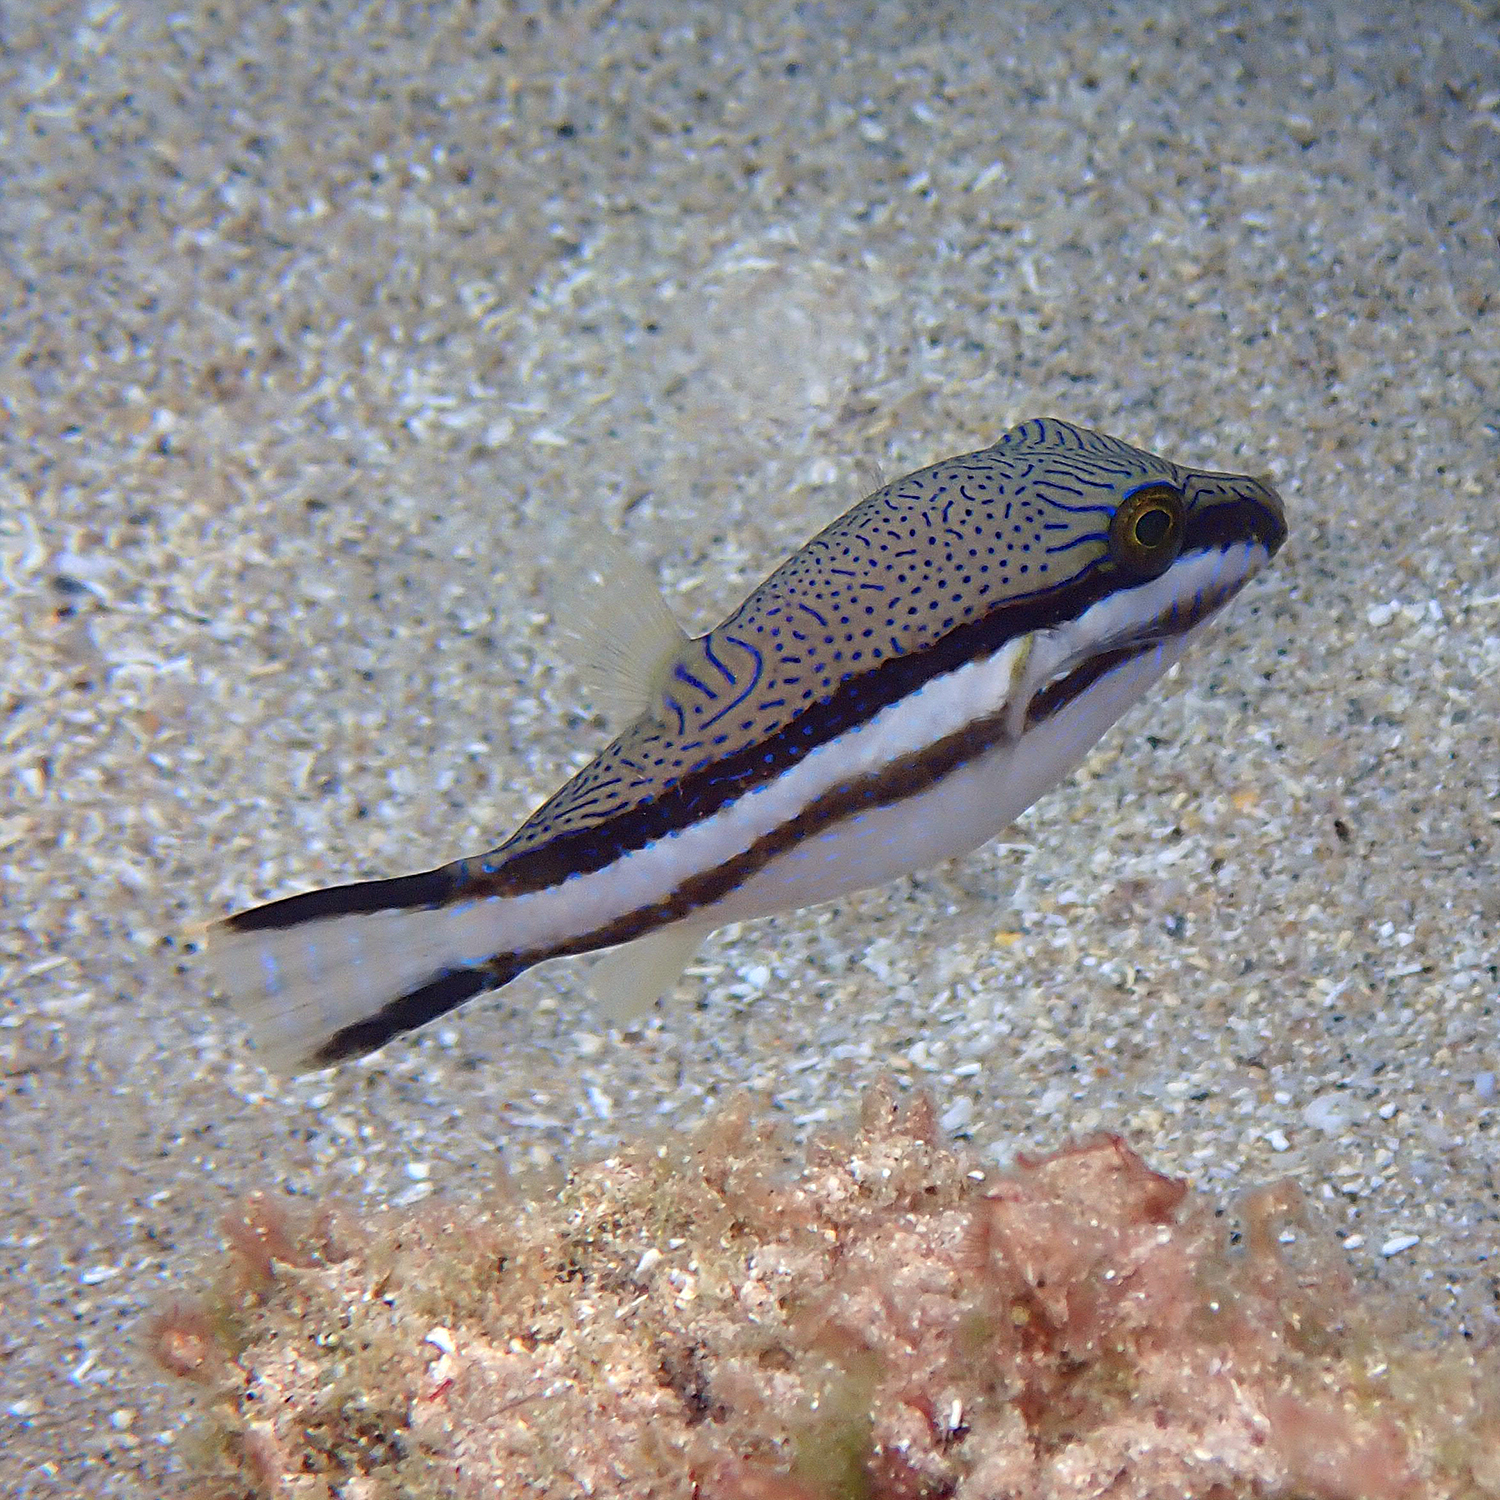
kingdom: Animalia
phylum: Chordata
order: Tetraodontiformes
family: Tetraodontidae
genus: Canthigaster
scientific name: Canthigaster callisterna
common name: Clown toado
